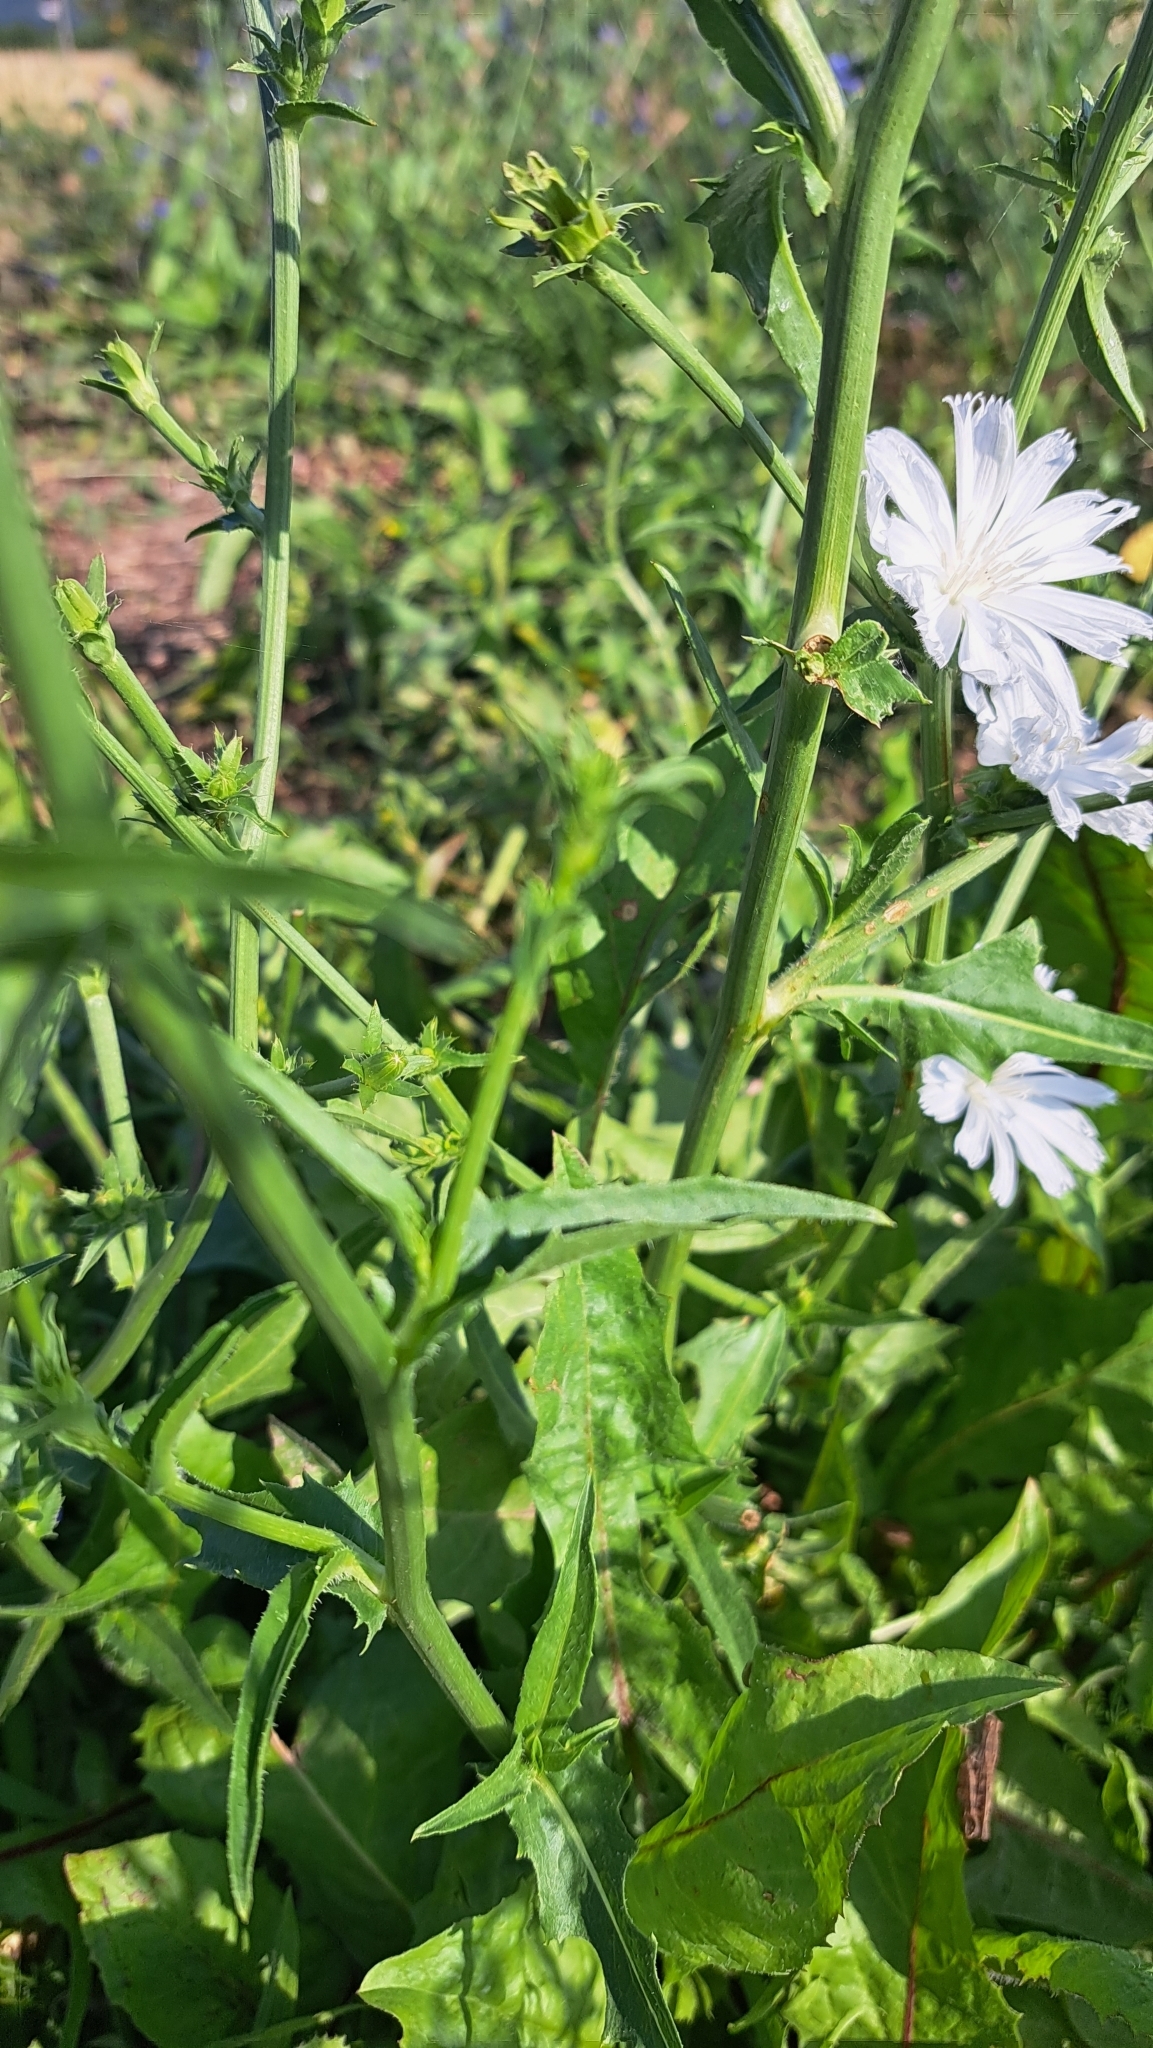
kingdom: Plantae
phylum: Tracheophyta
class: Magnoliopsida
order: Asterales
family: Asteraceae
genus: Cichorium
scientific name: Cichorium intybus
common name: Chicory
